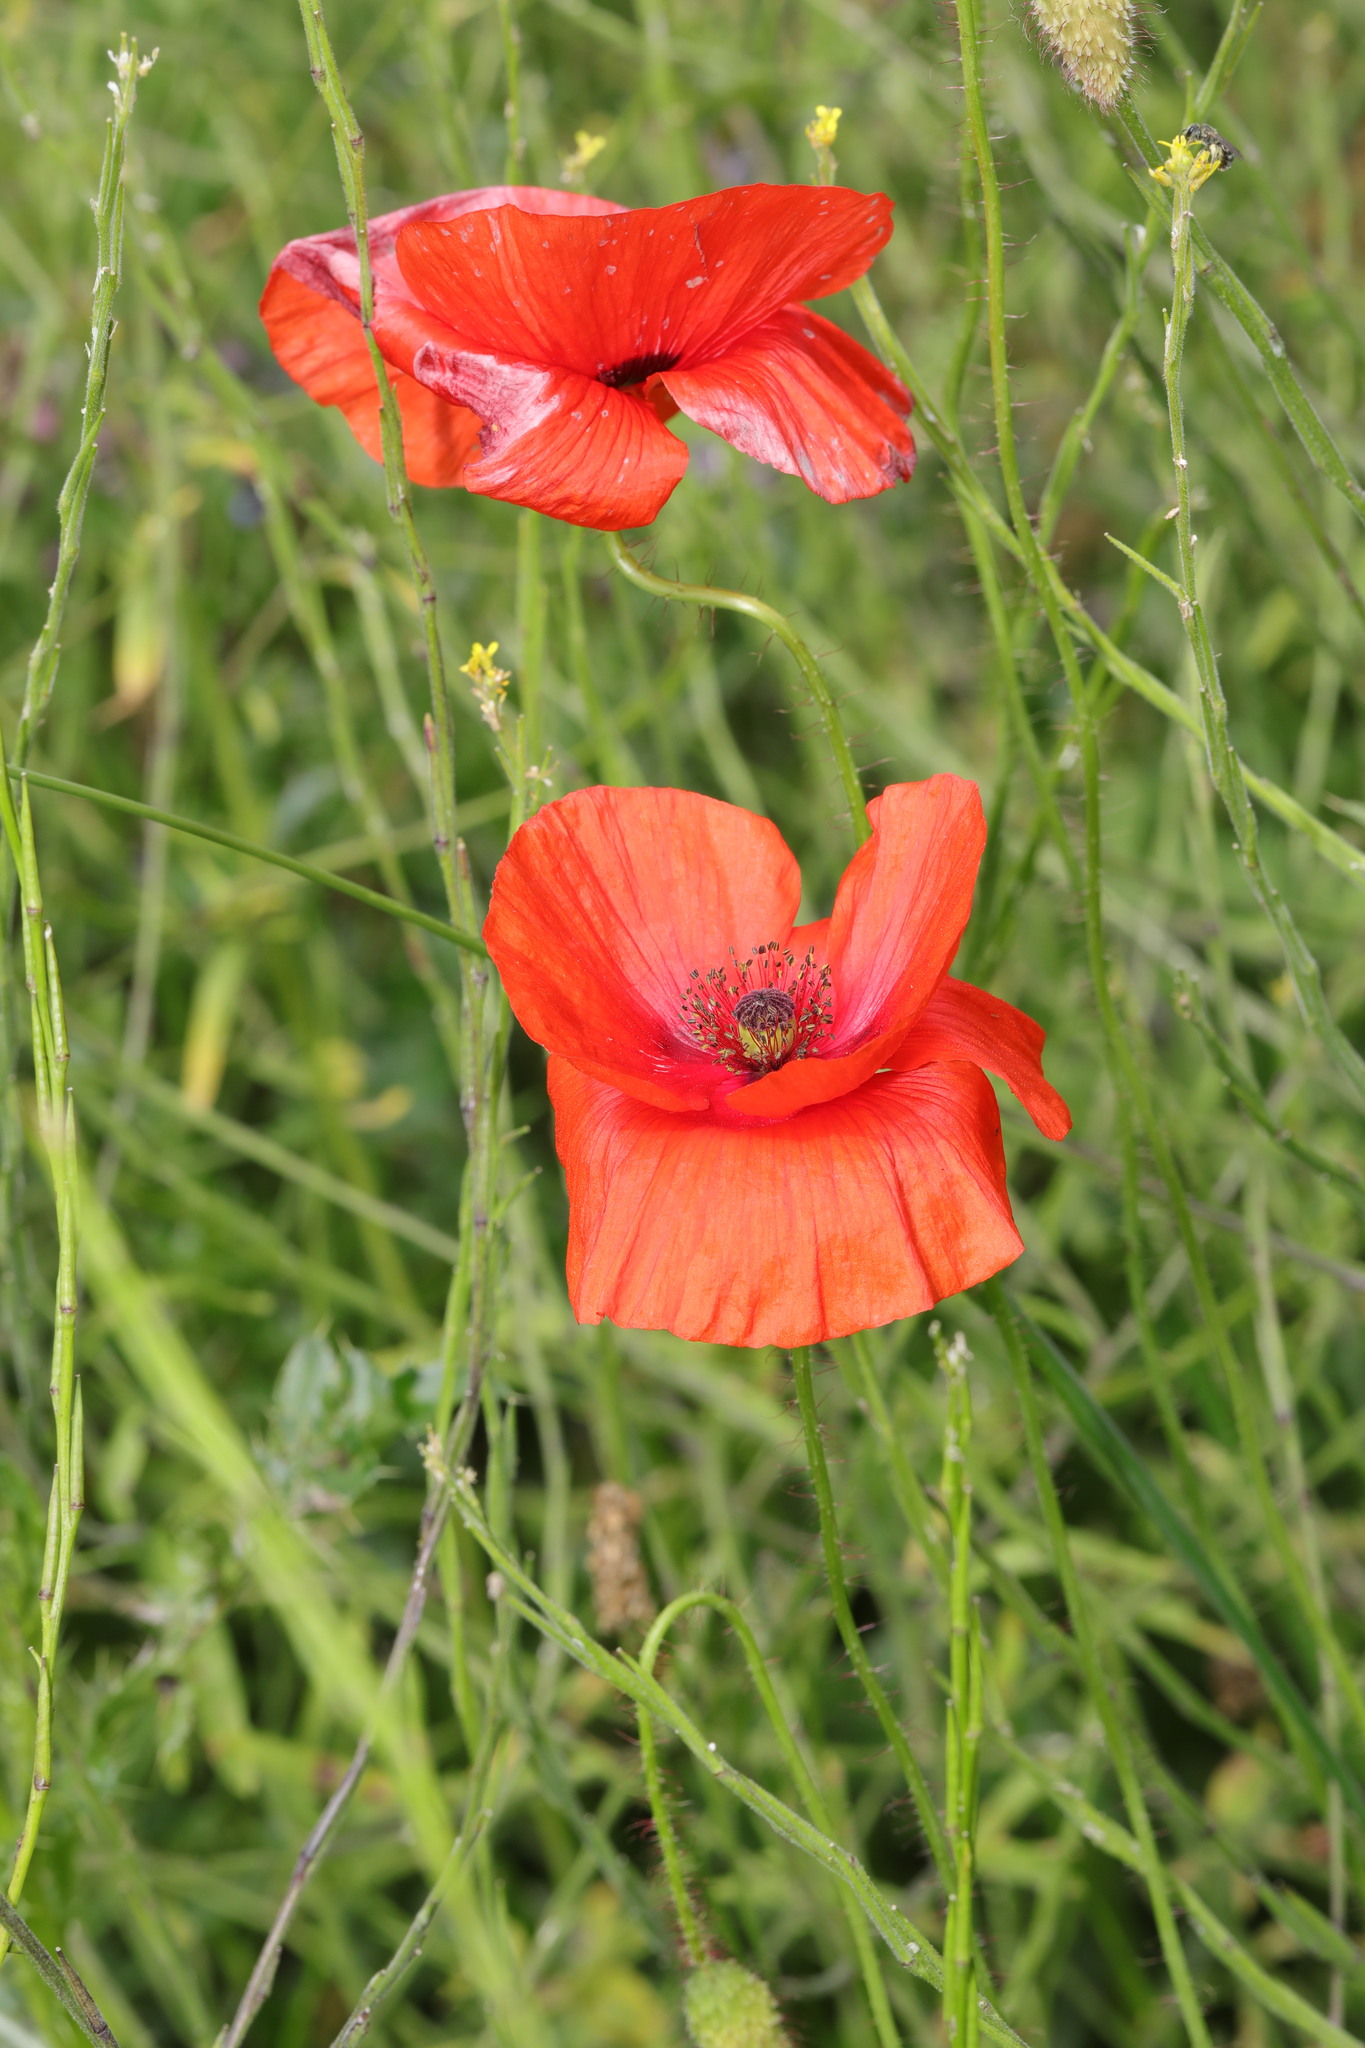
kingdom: Plantae
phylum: Tracheophyta
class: Magnoliopsida
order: Ranunculales
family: Papaveraceae
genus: Papaver
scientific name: Papaver rhoeas
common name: Corn poppy
